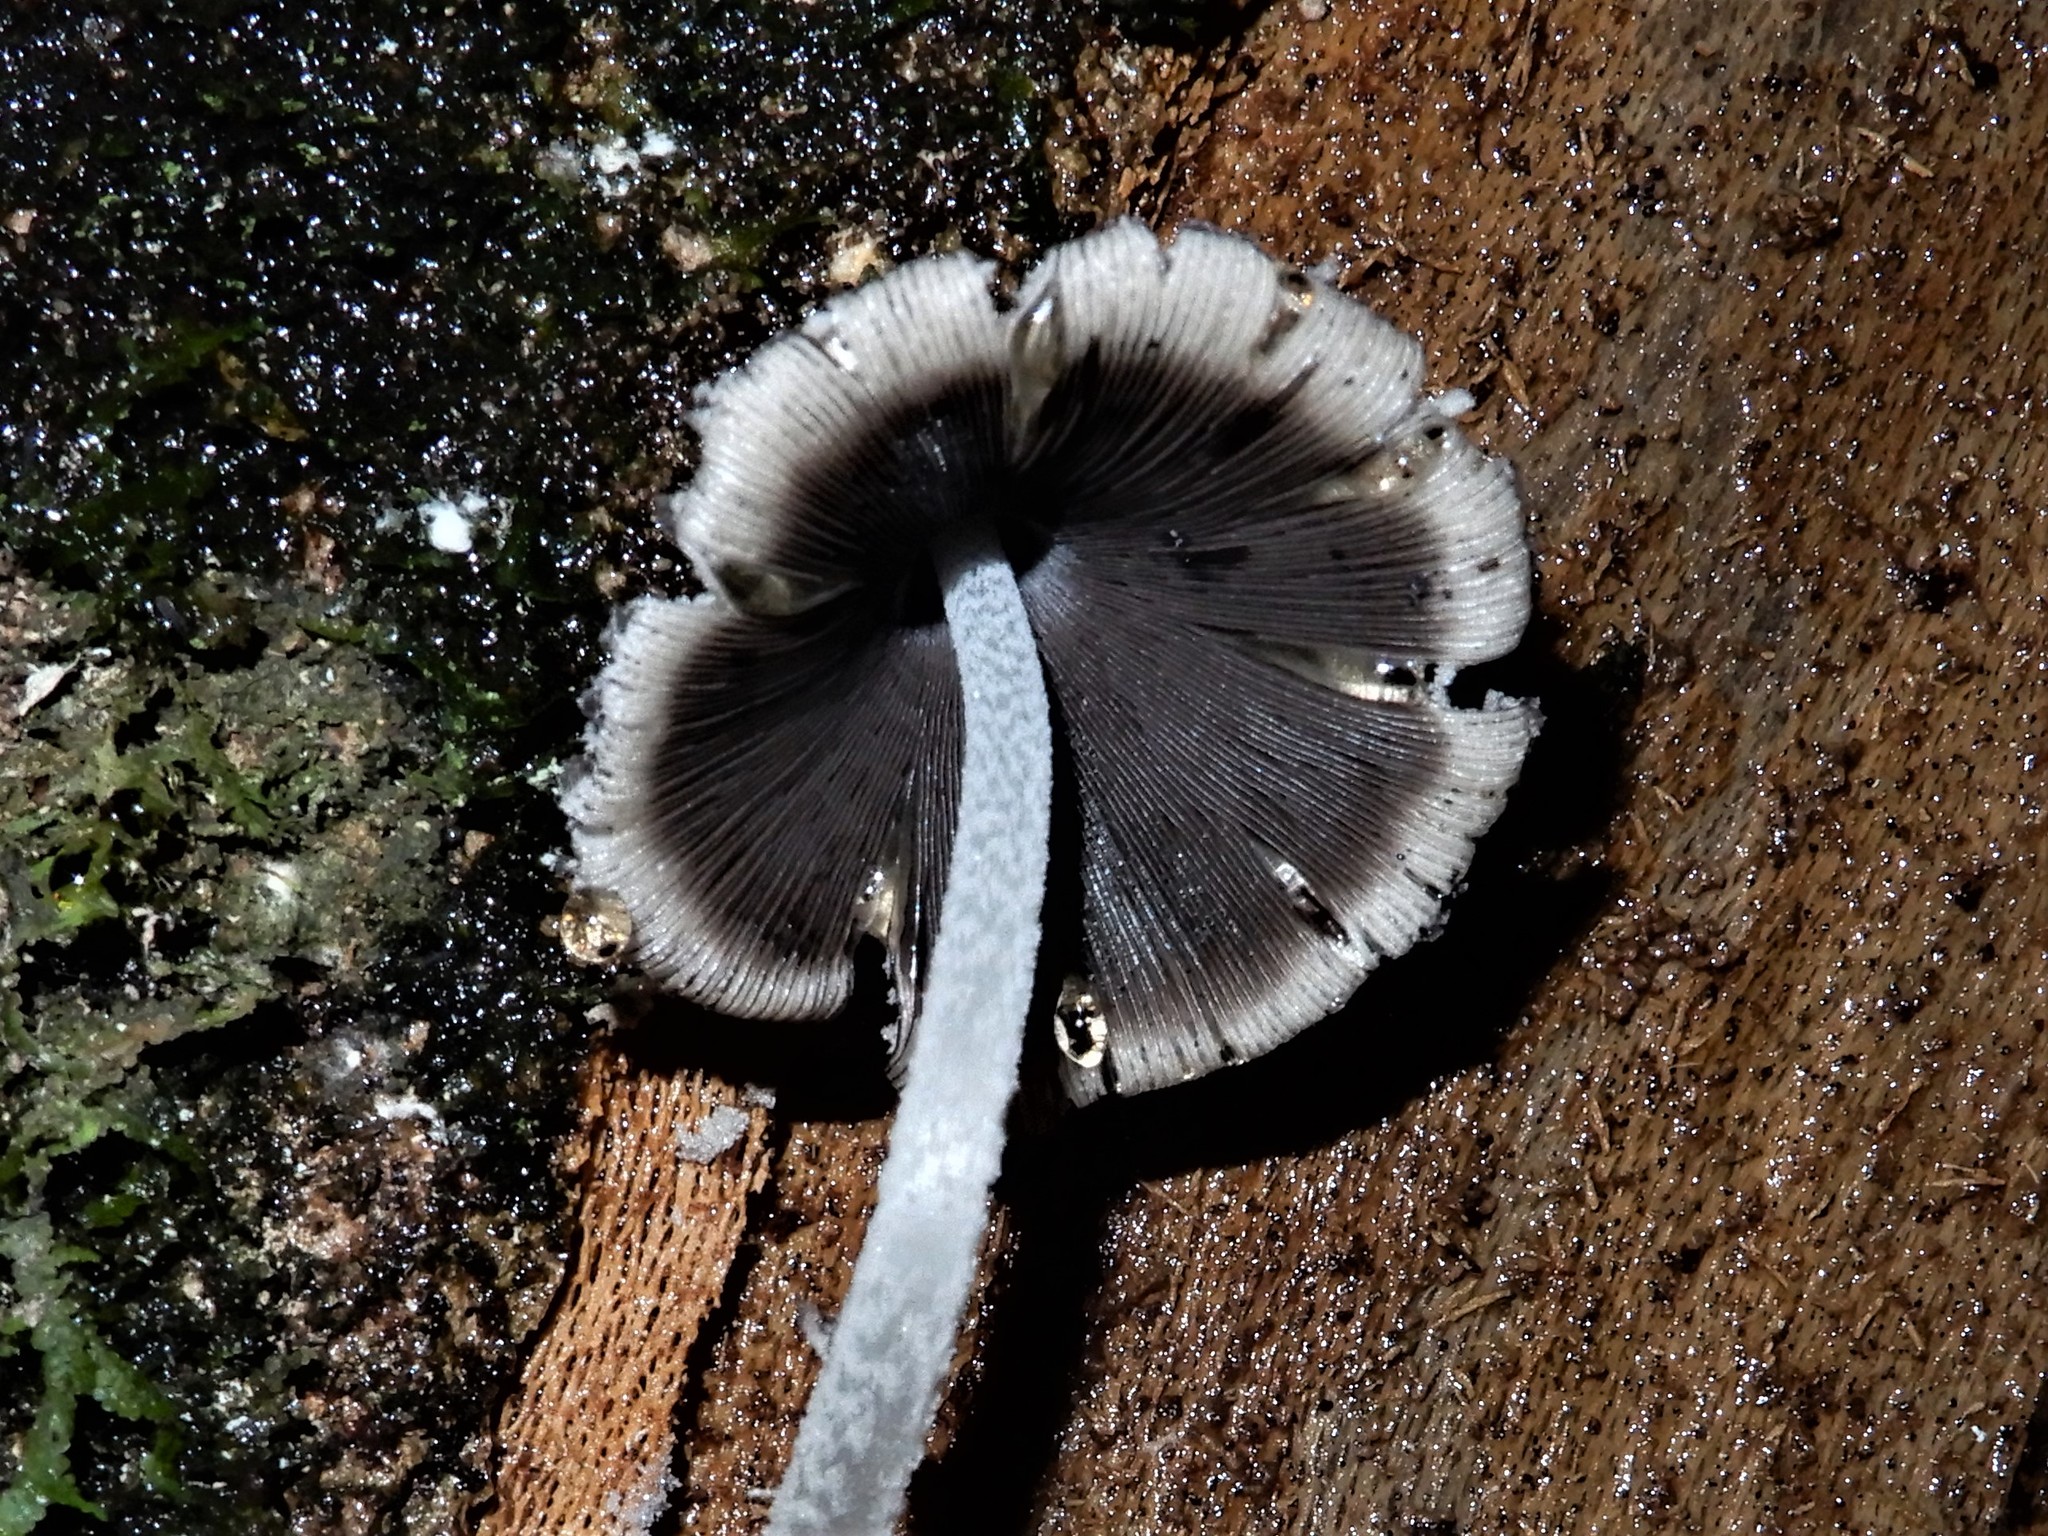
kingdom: Fungi
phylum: Basidiomycota
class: Agaricomycetes
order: Agaricales
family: Psathyrellaceae
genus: Coprinopsis
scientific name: Coprinopsis laanii
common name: Dotty inkcap
